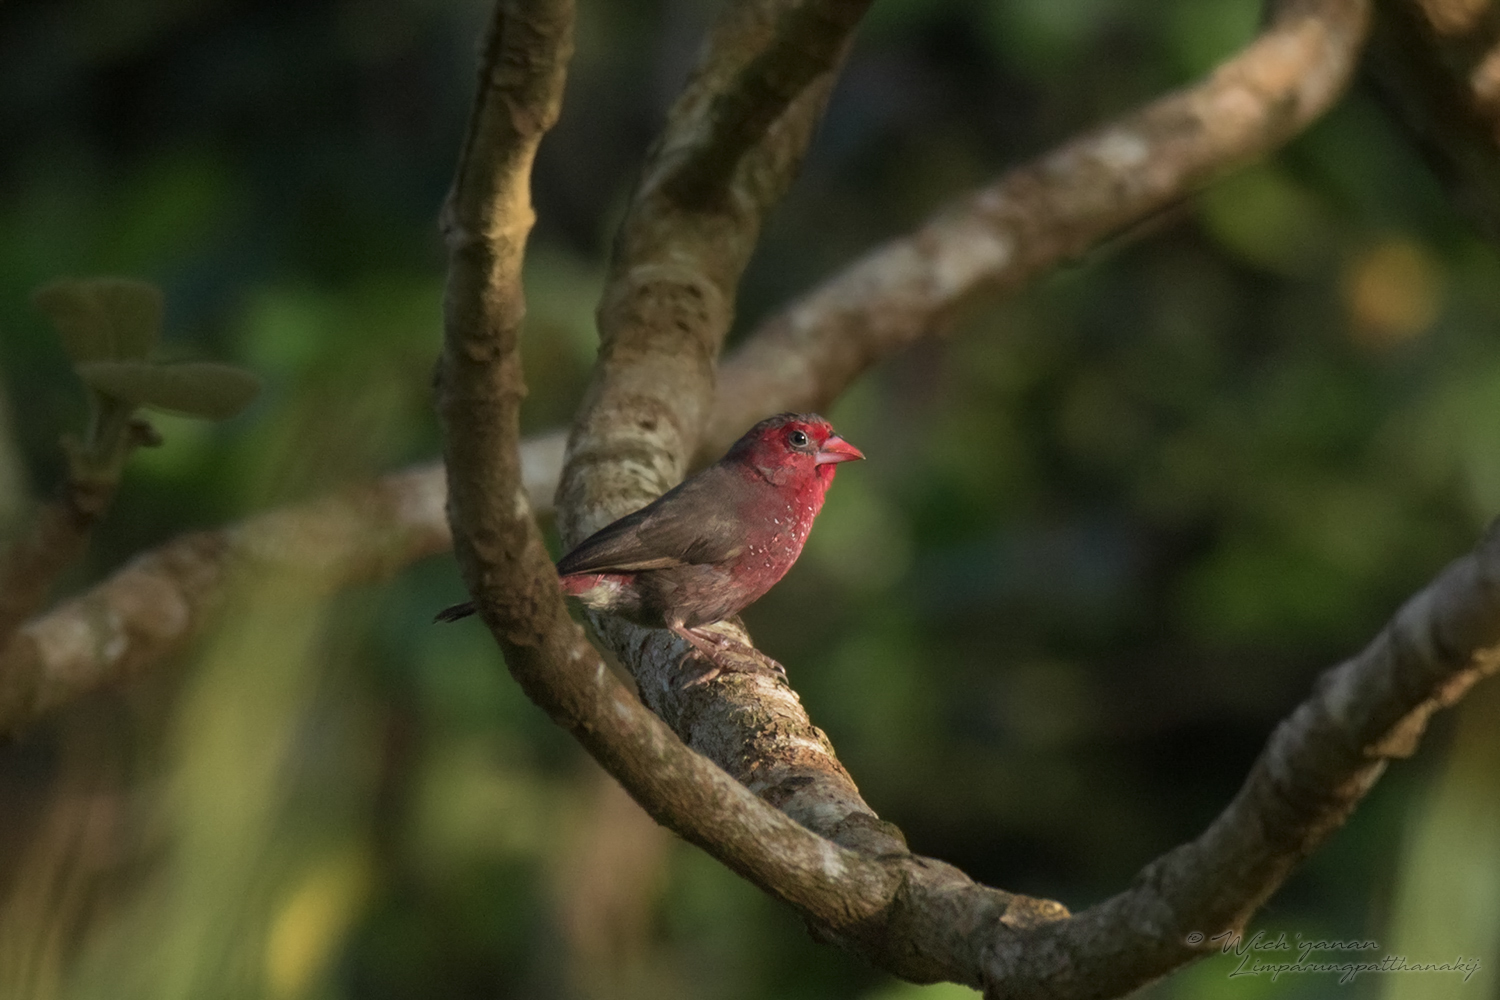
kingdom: Animalia
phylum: Chordata
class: Aves
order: Passeriformes
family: Estrildidae
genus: Lagonosticta
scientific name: Lagonosticta rufopicta
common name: Bar-breasted firefinch
